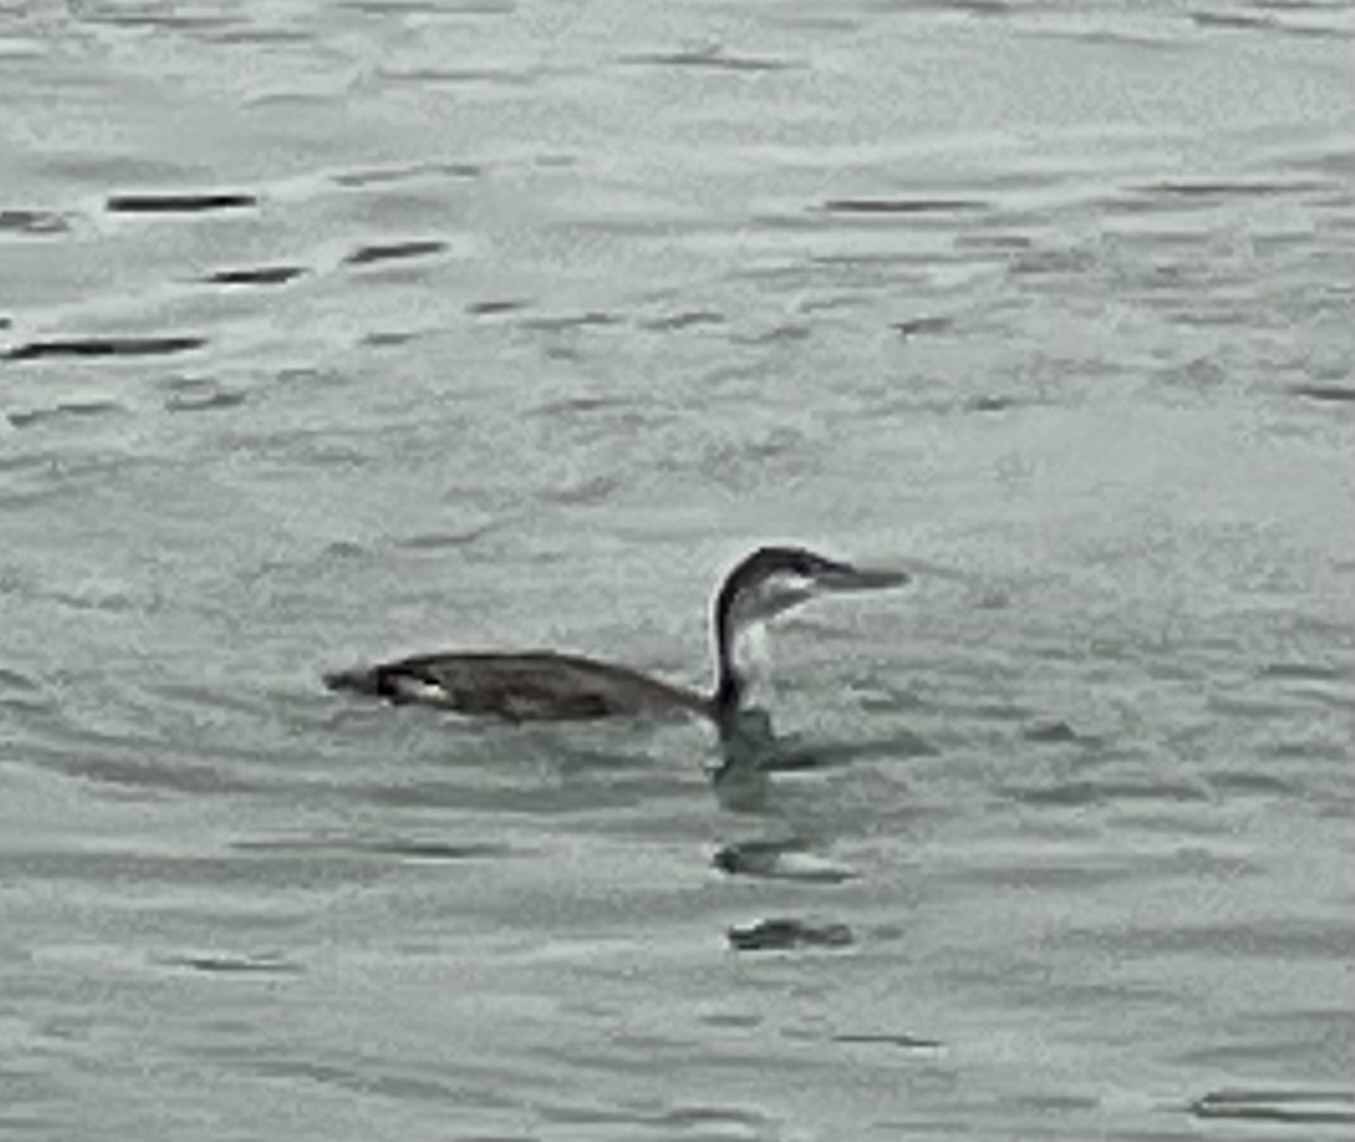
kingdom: Animalia
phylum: Chordata
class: Aves
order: Gaviiformes
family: Gaviidae
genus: Gavia
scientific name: Gavia stellata
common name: Red-throated loon
